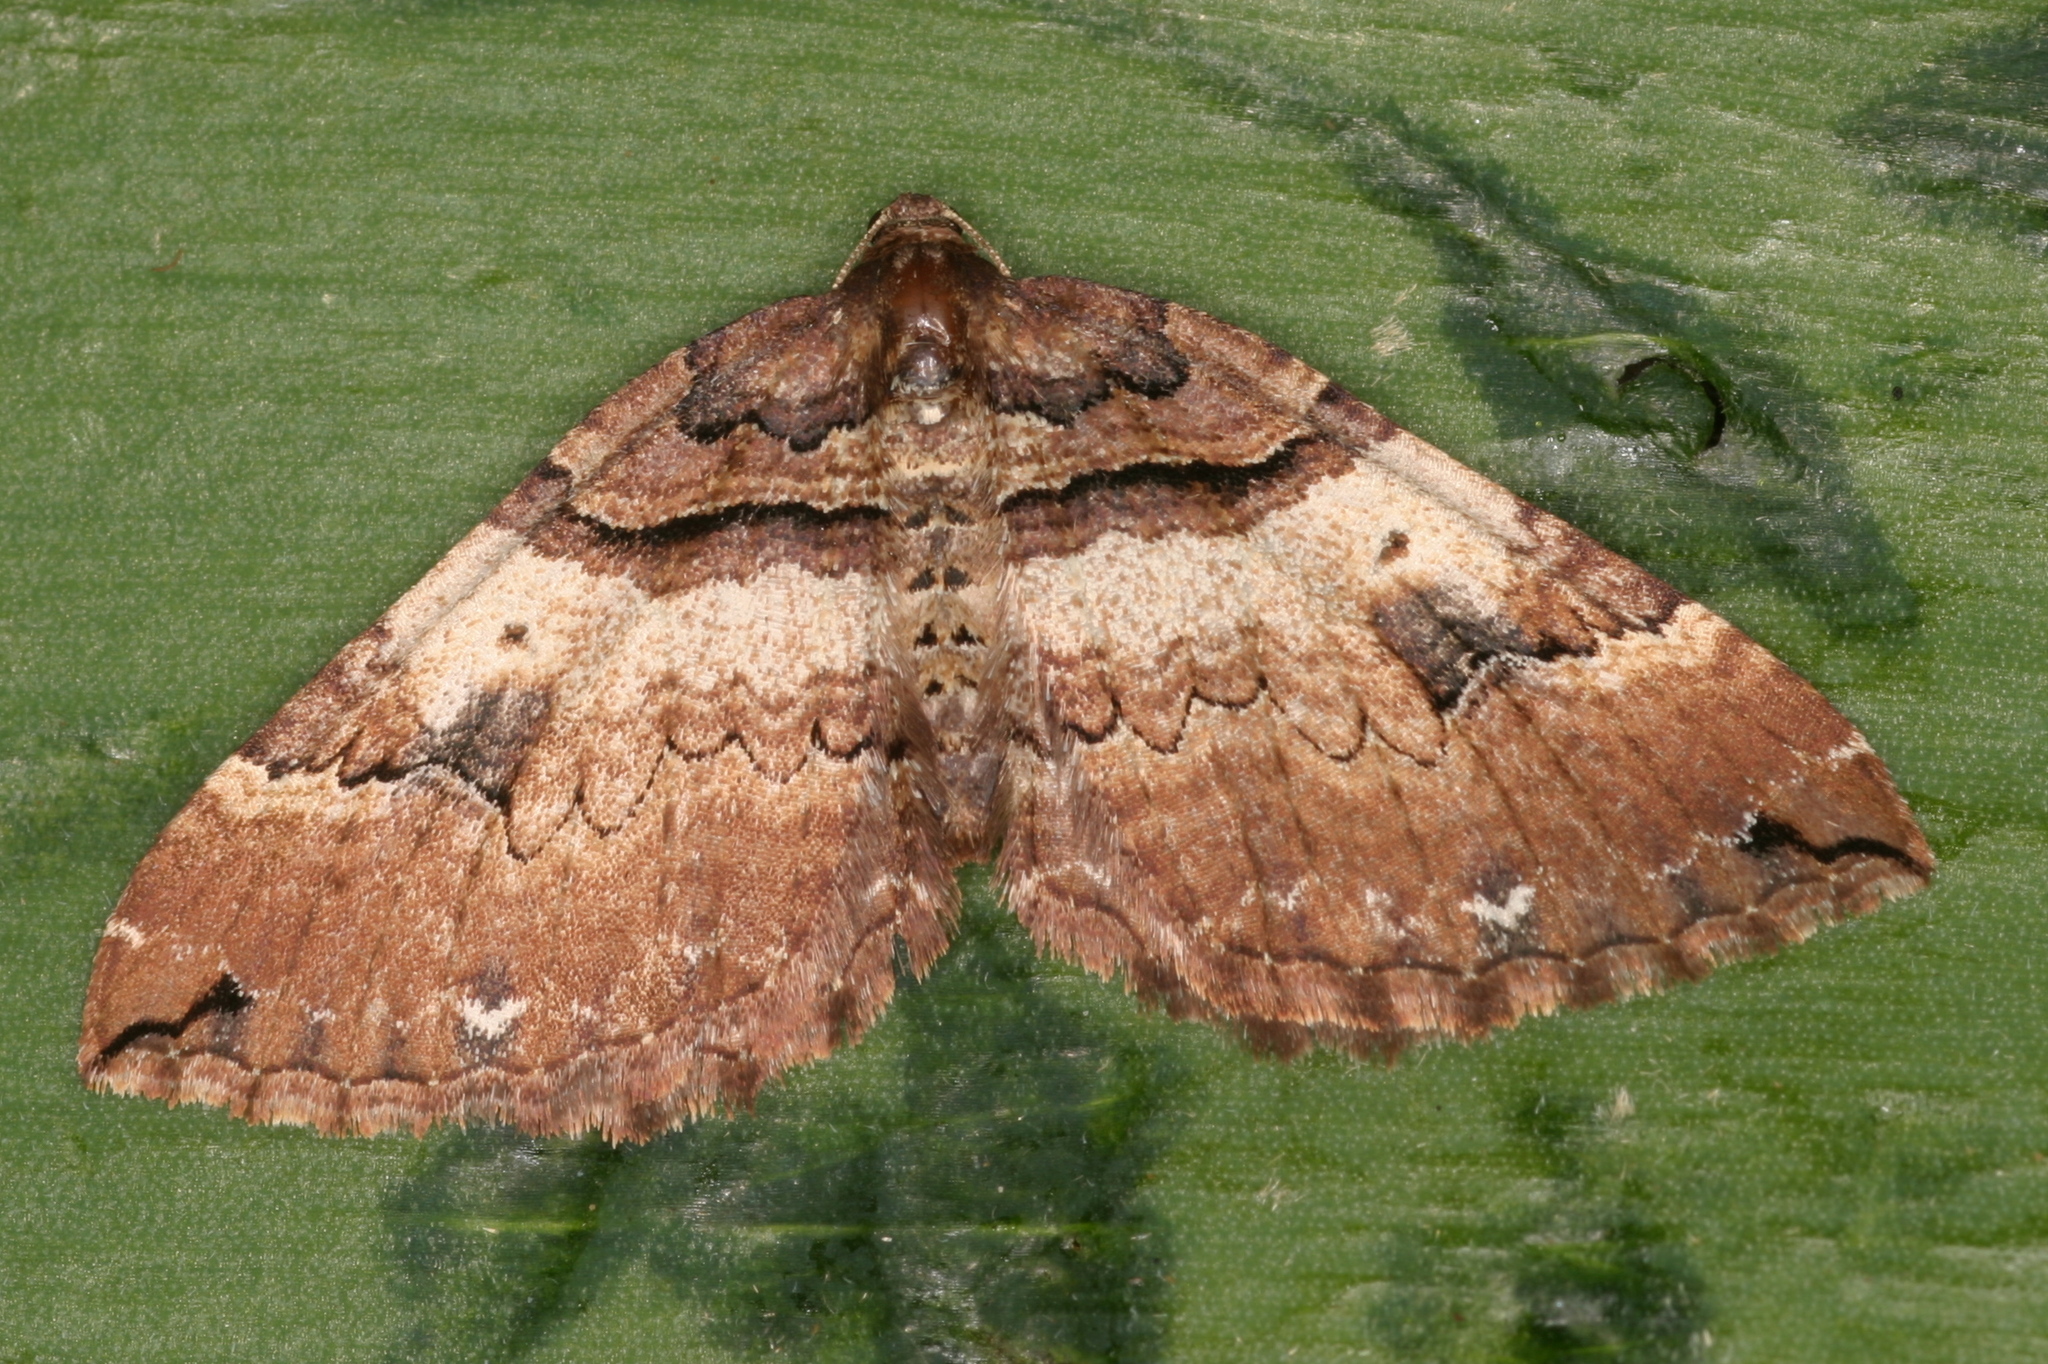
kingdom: Animalia
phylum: Arthropoda
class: Insecta
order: Lepidoptera
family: Geometridae
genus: Anticlea
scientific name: Anticlea badiata
